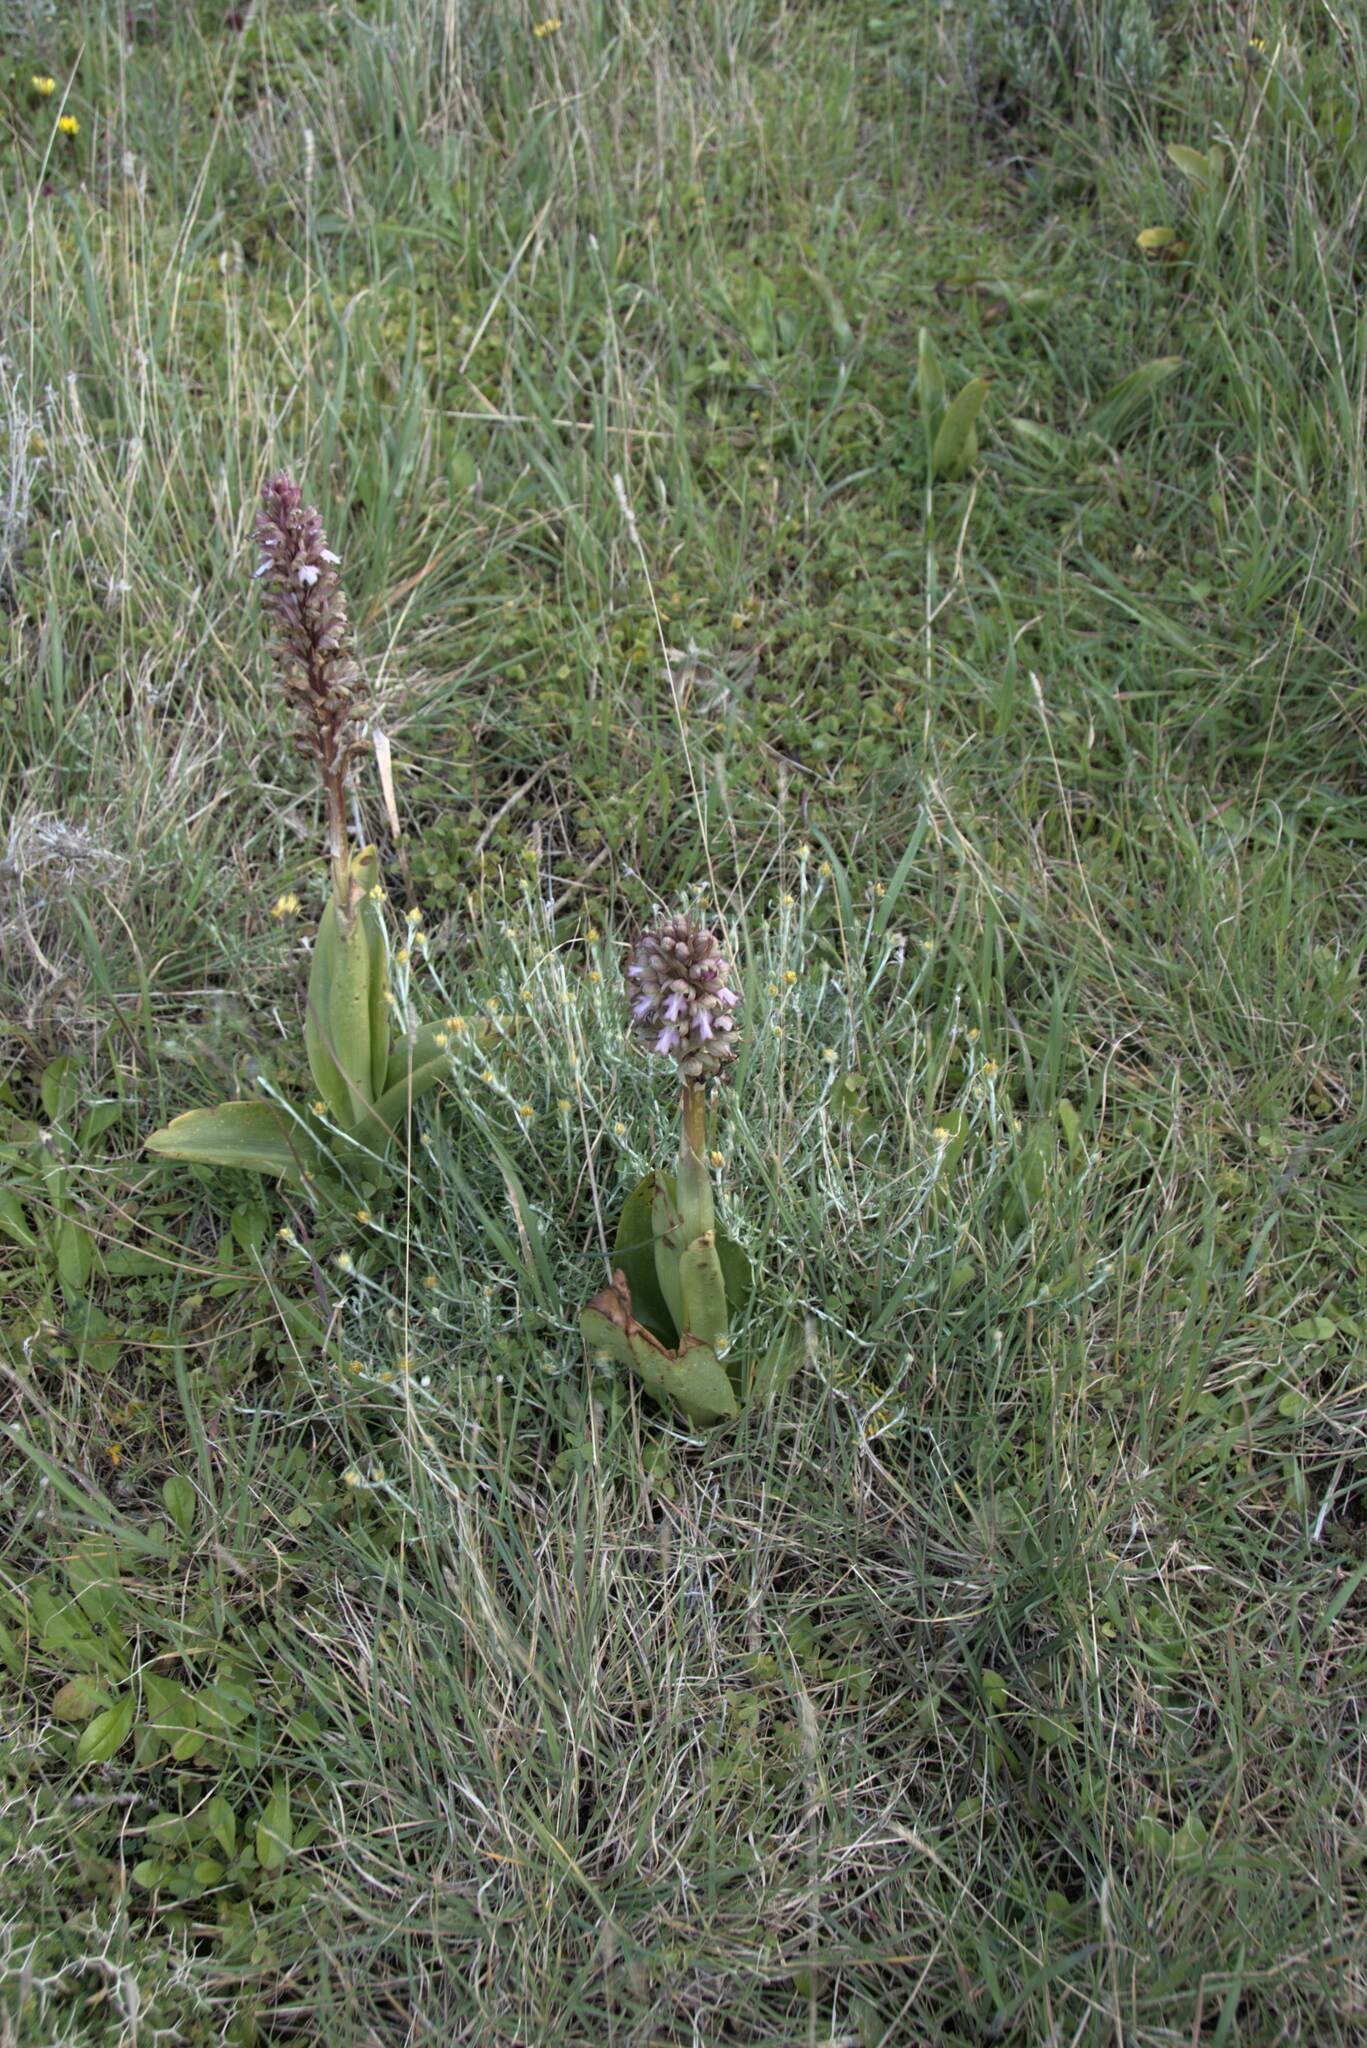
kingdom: Plantae
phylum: Tracheophyta
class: Liliopsida
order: Asparagales
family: Orchidaceae
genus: Himantoglossum
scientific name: Himantoglossum robertianum
